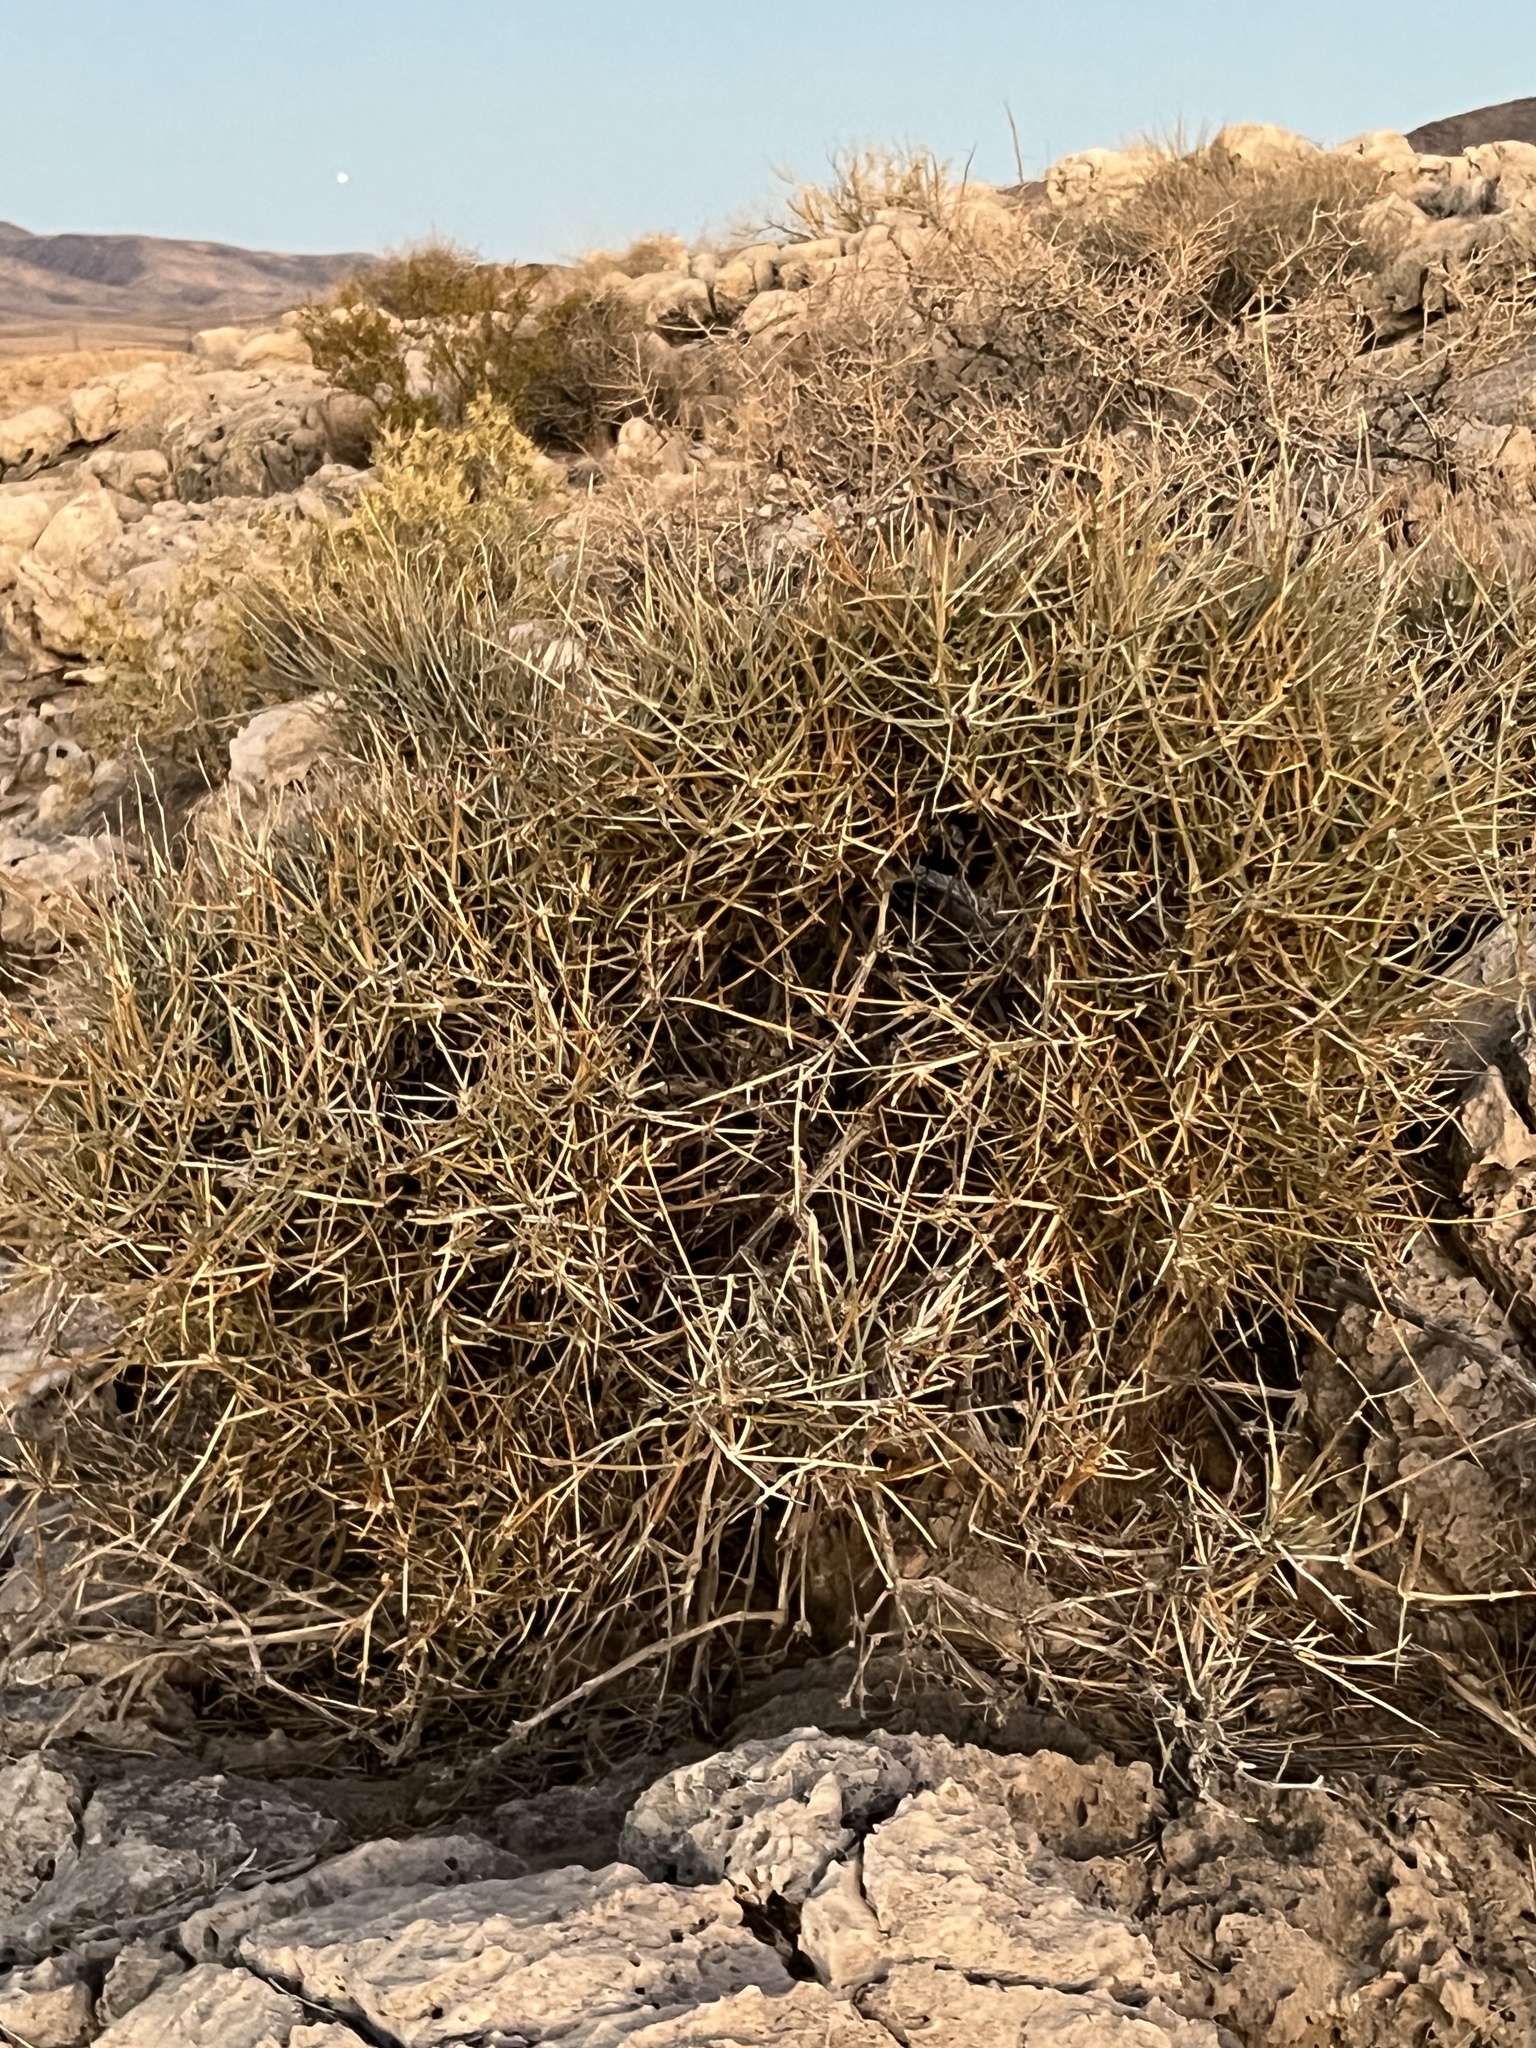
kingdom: Plantae
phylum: Tracheophyta
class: Gnetopsida
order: Ephedrales
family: Ephedraceae
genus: Ephedra
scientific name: Ephedra nevadensis
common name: Gray ephedra
